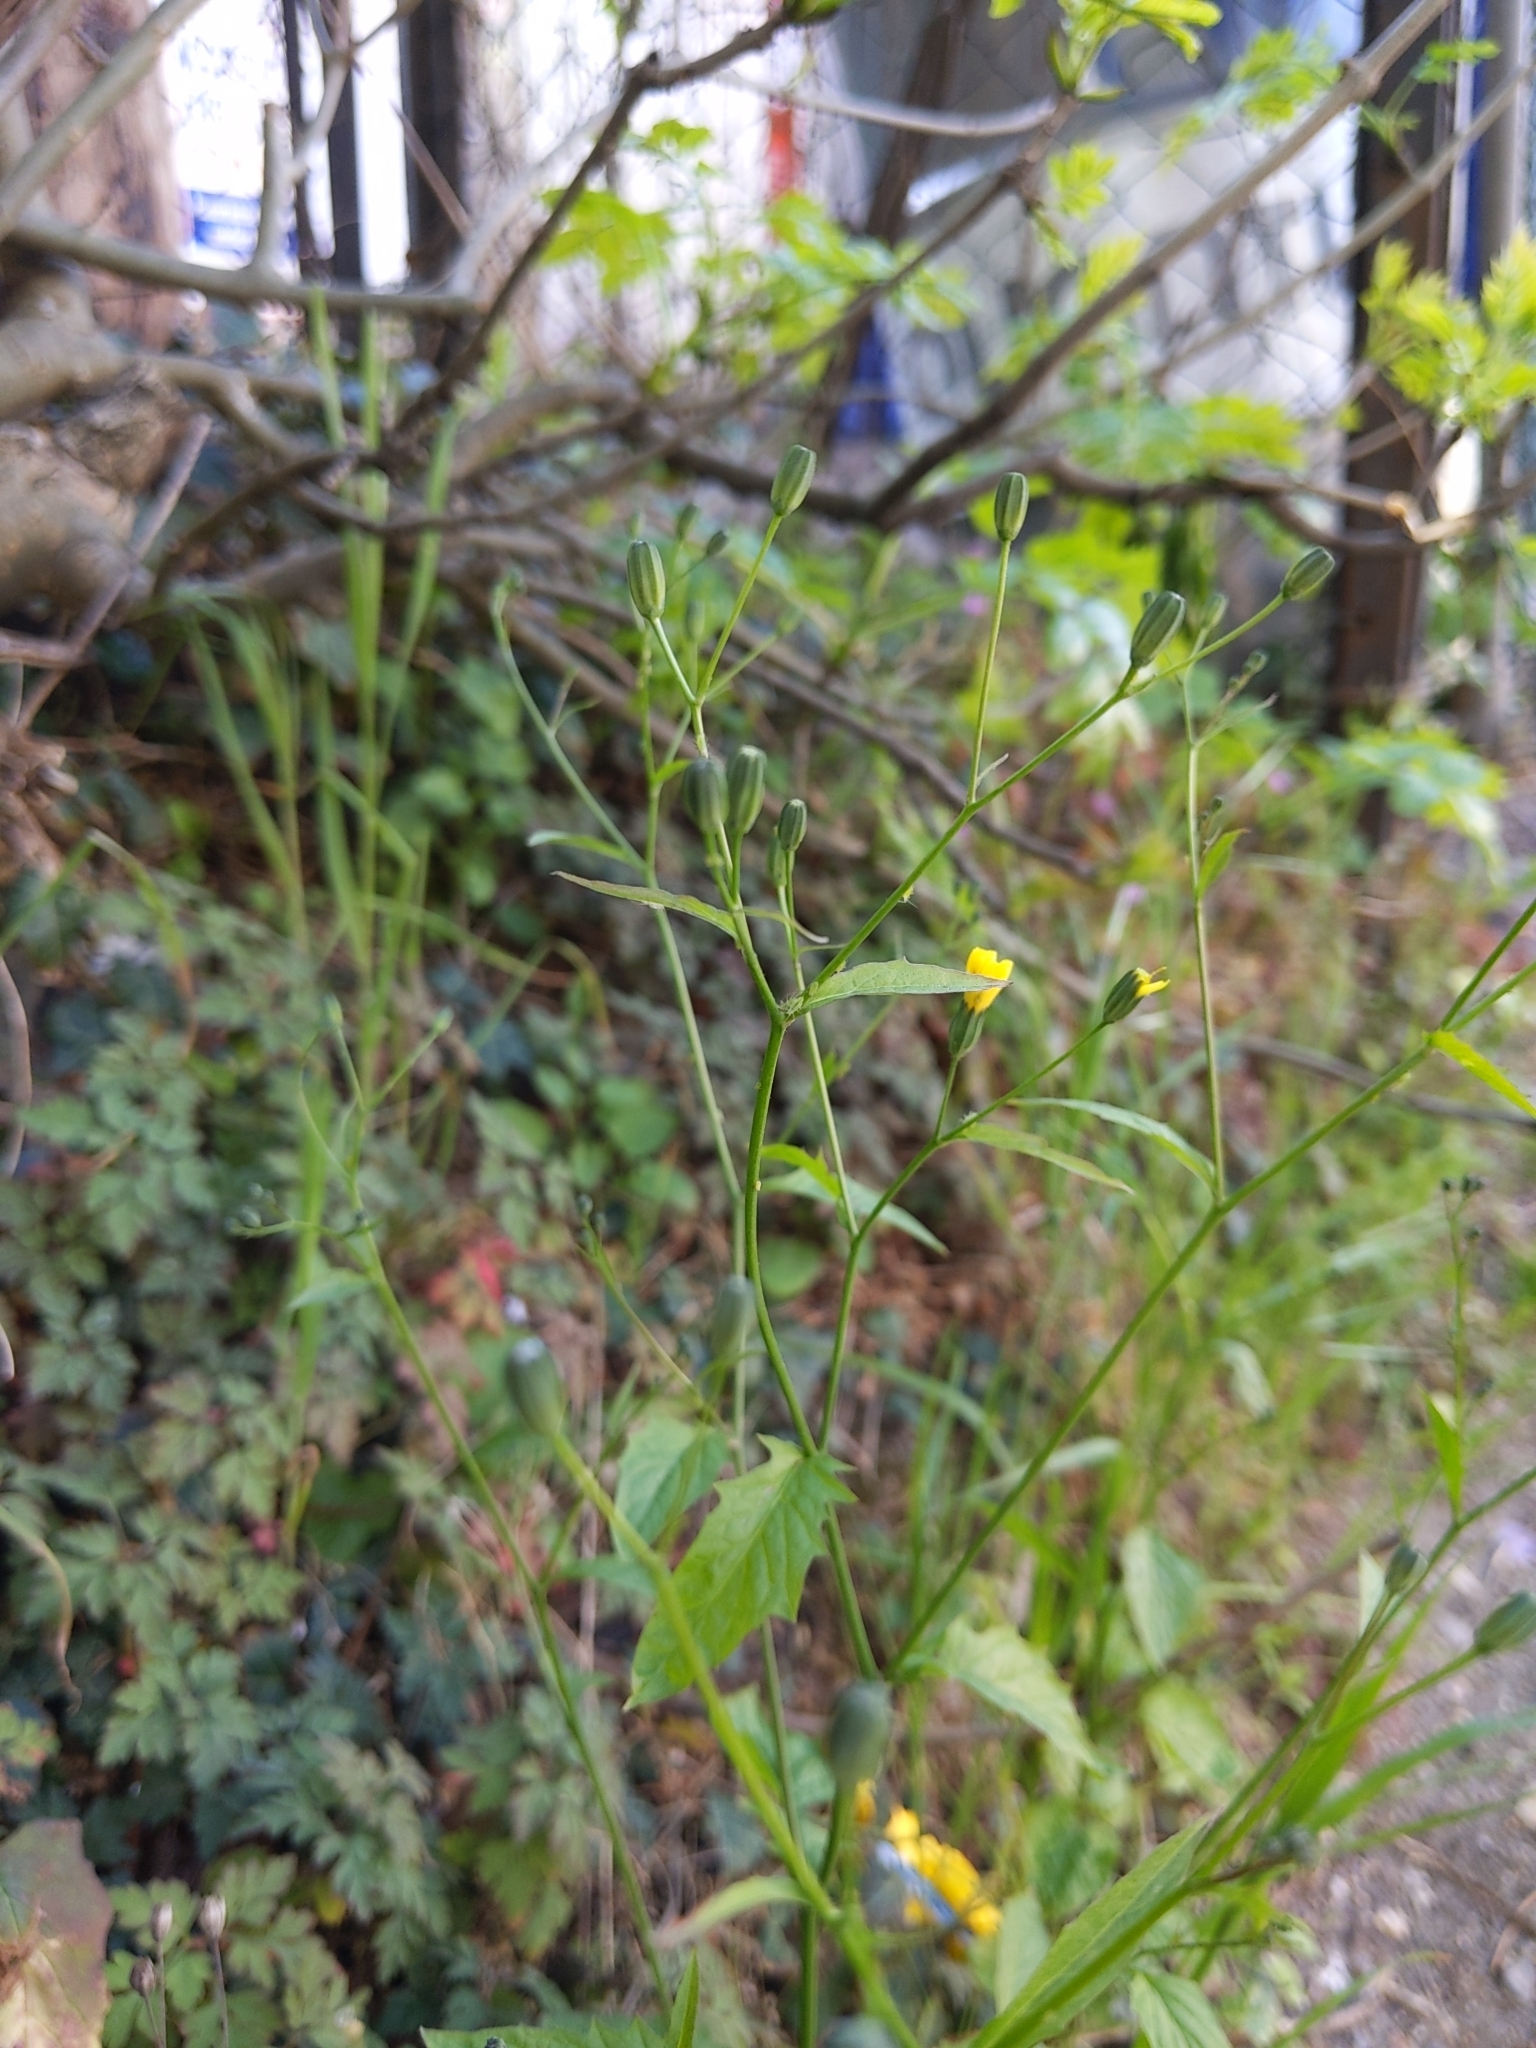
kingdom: Plantae
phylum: Tracheophyta
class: Magnoliopsida
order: Asterales
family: Asteraceae
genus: Lapsana
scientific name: Lapsana communis
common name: Nipplewort
